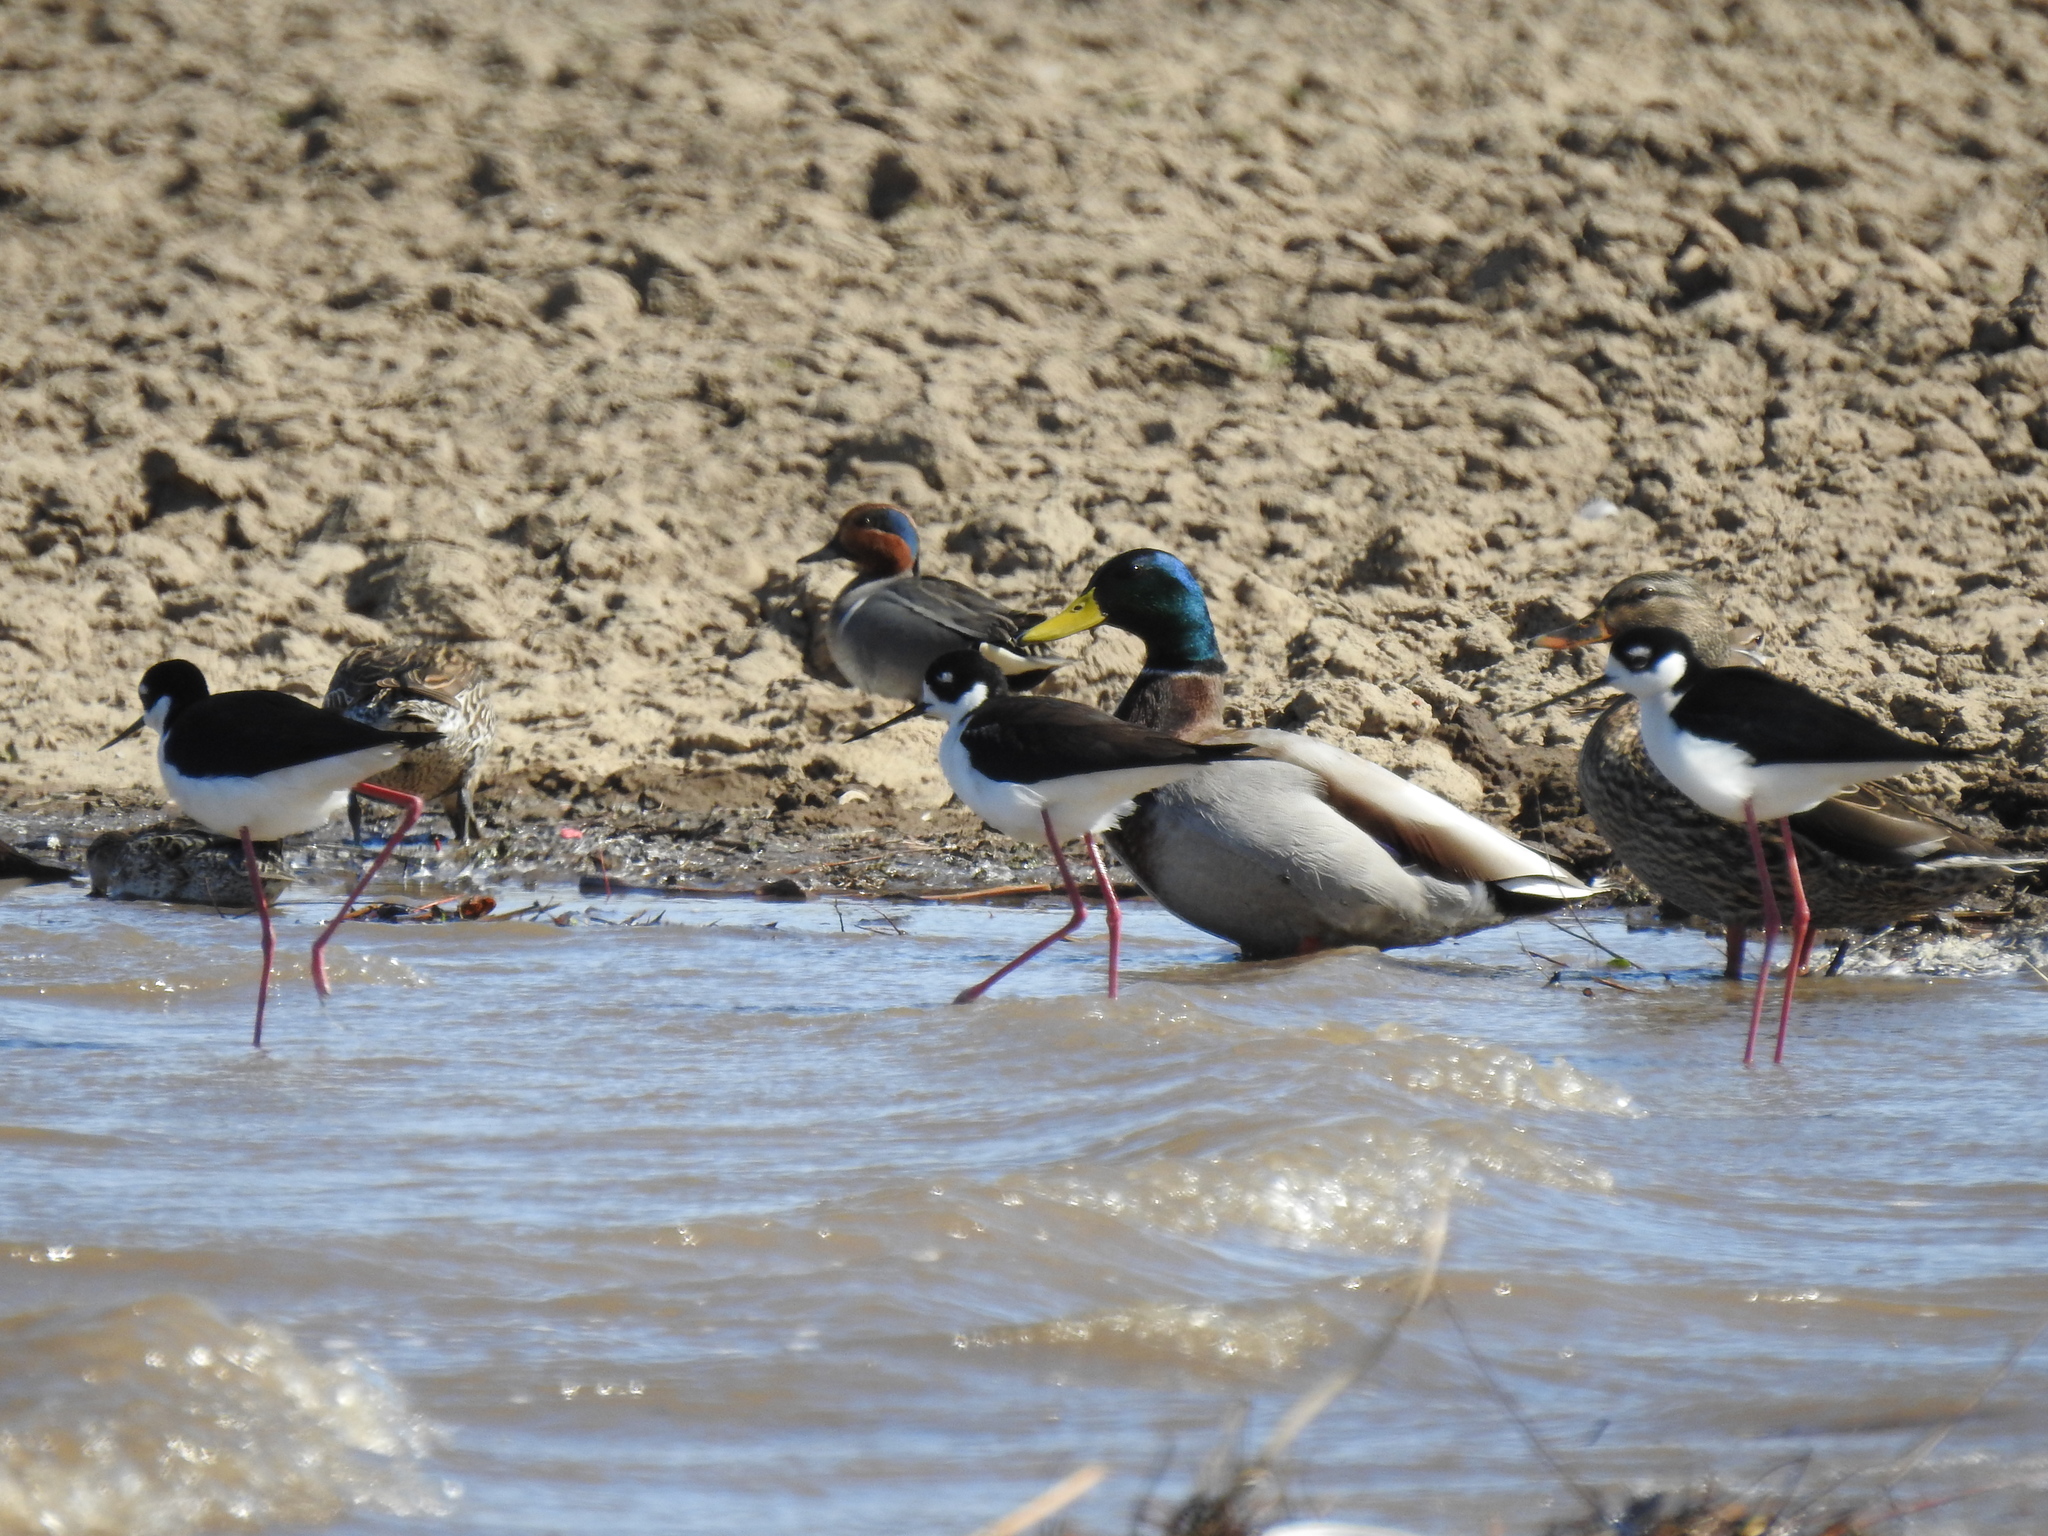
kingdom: Animalia
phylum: Chordata
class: Aves
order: Anseriformes
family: Anatidae
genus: Anas
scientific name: Anas platyrhynchos
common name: Mallard
